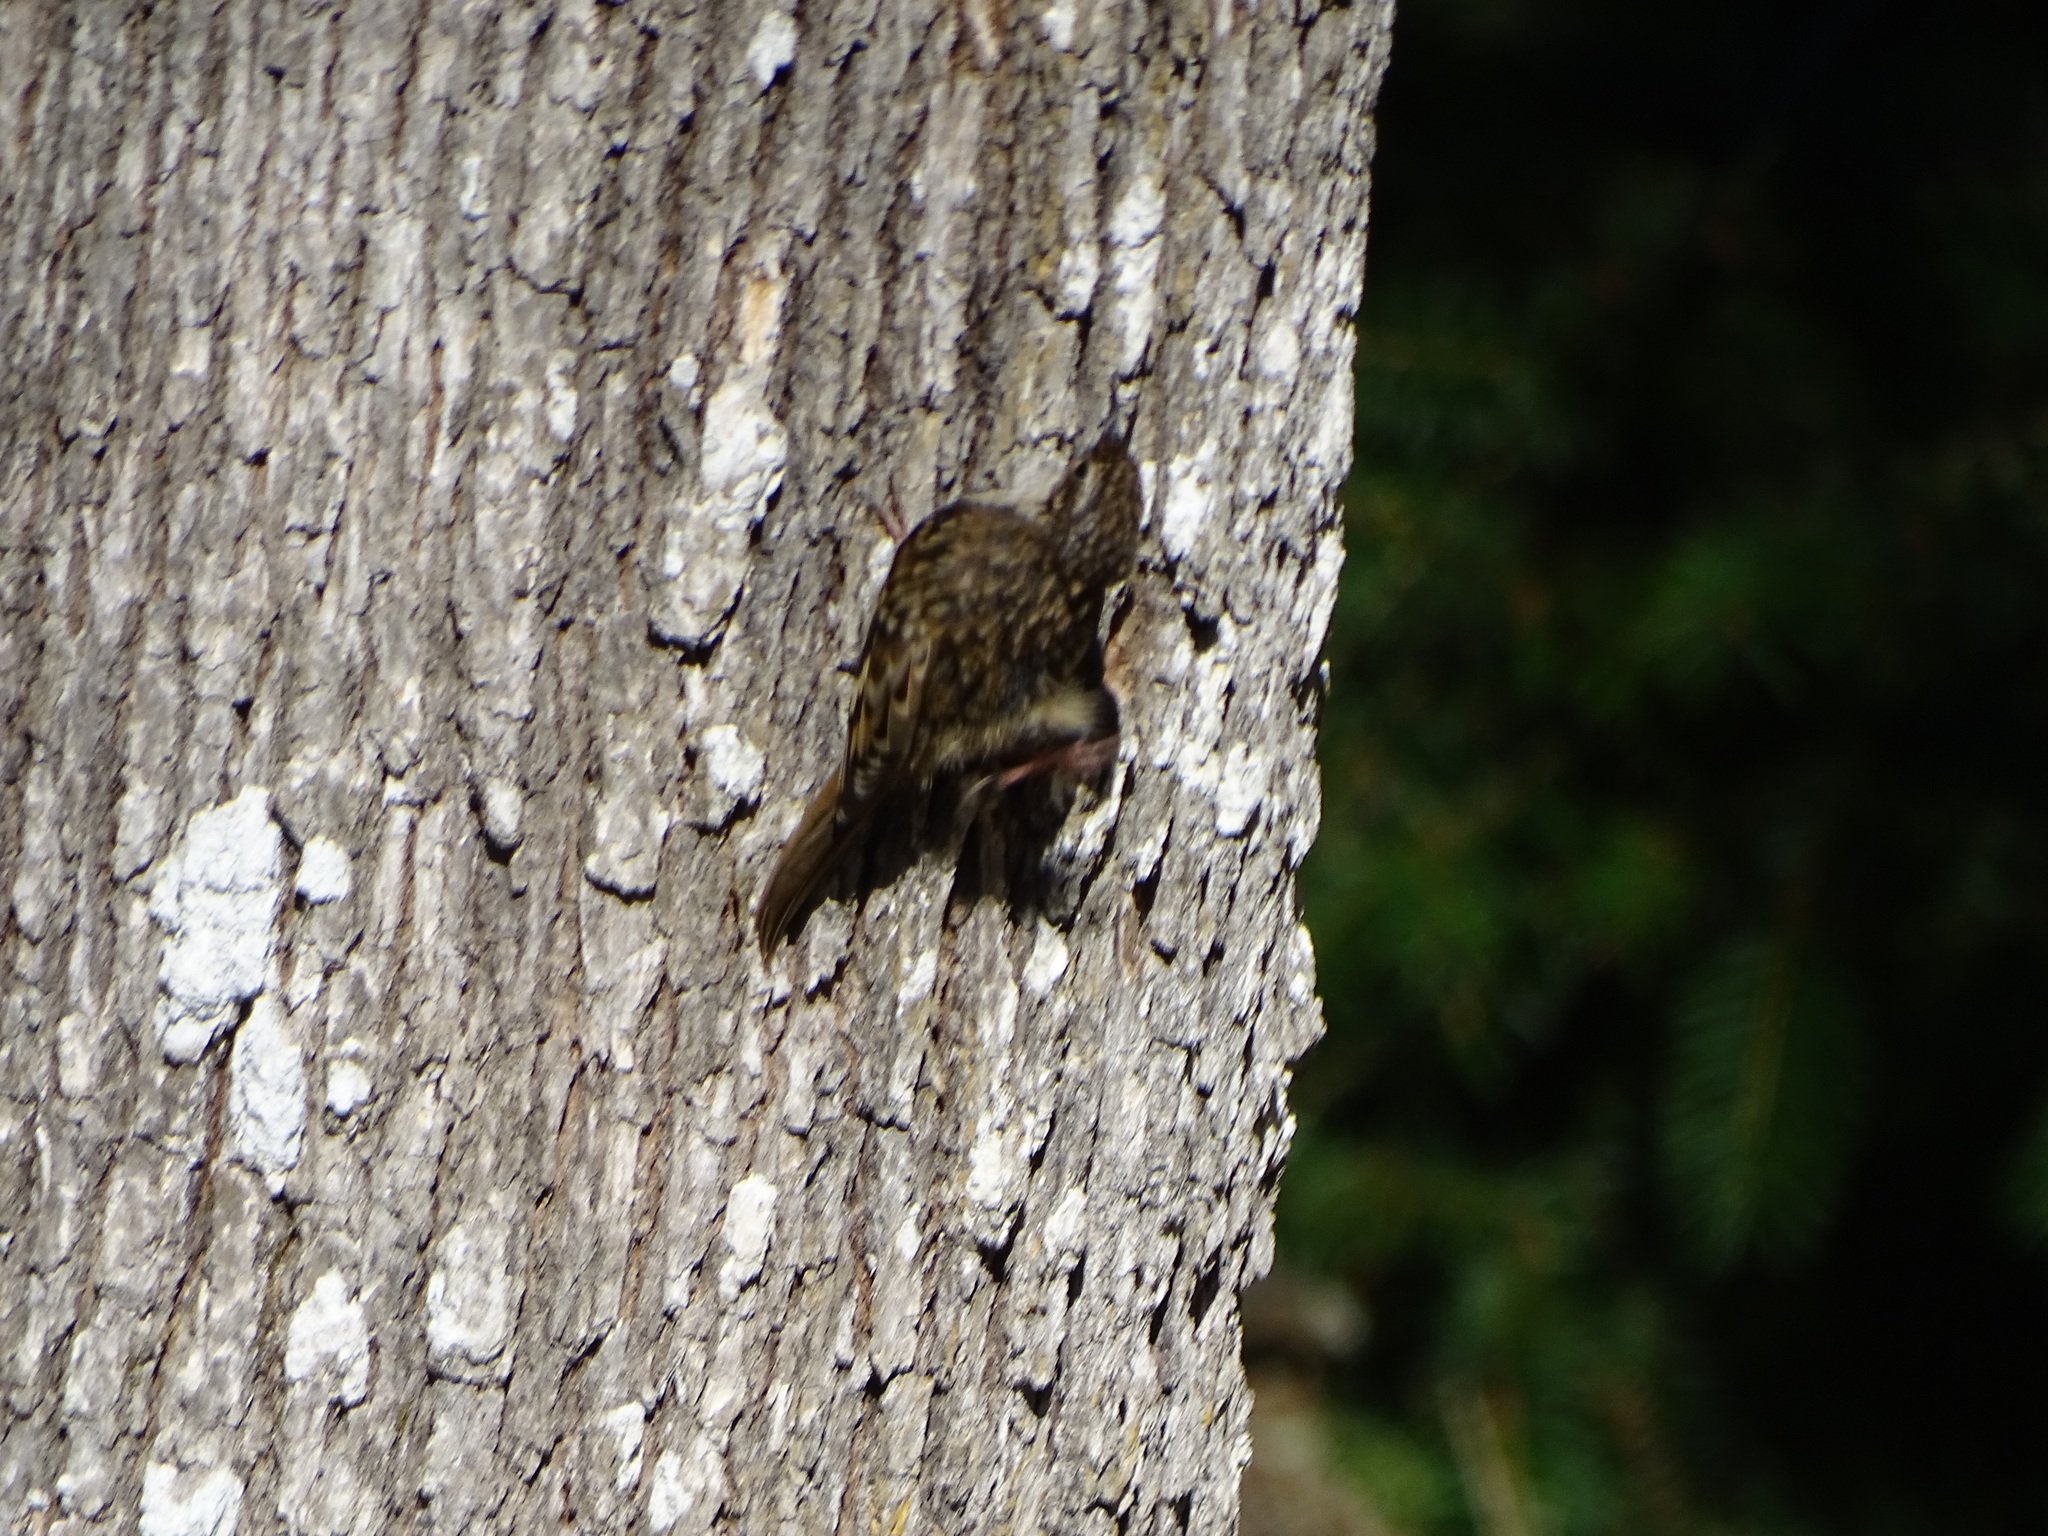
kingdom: Animalia
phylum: Chordata
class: Aves
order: Passeriformes
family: Certhiidae
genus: Certhia
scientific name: Certhia americana
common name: Brown creeper
